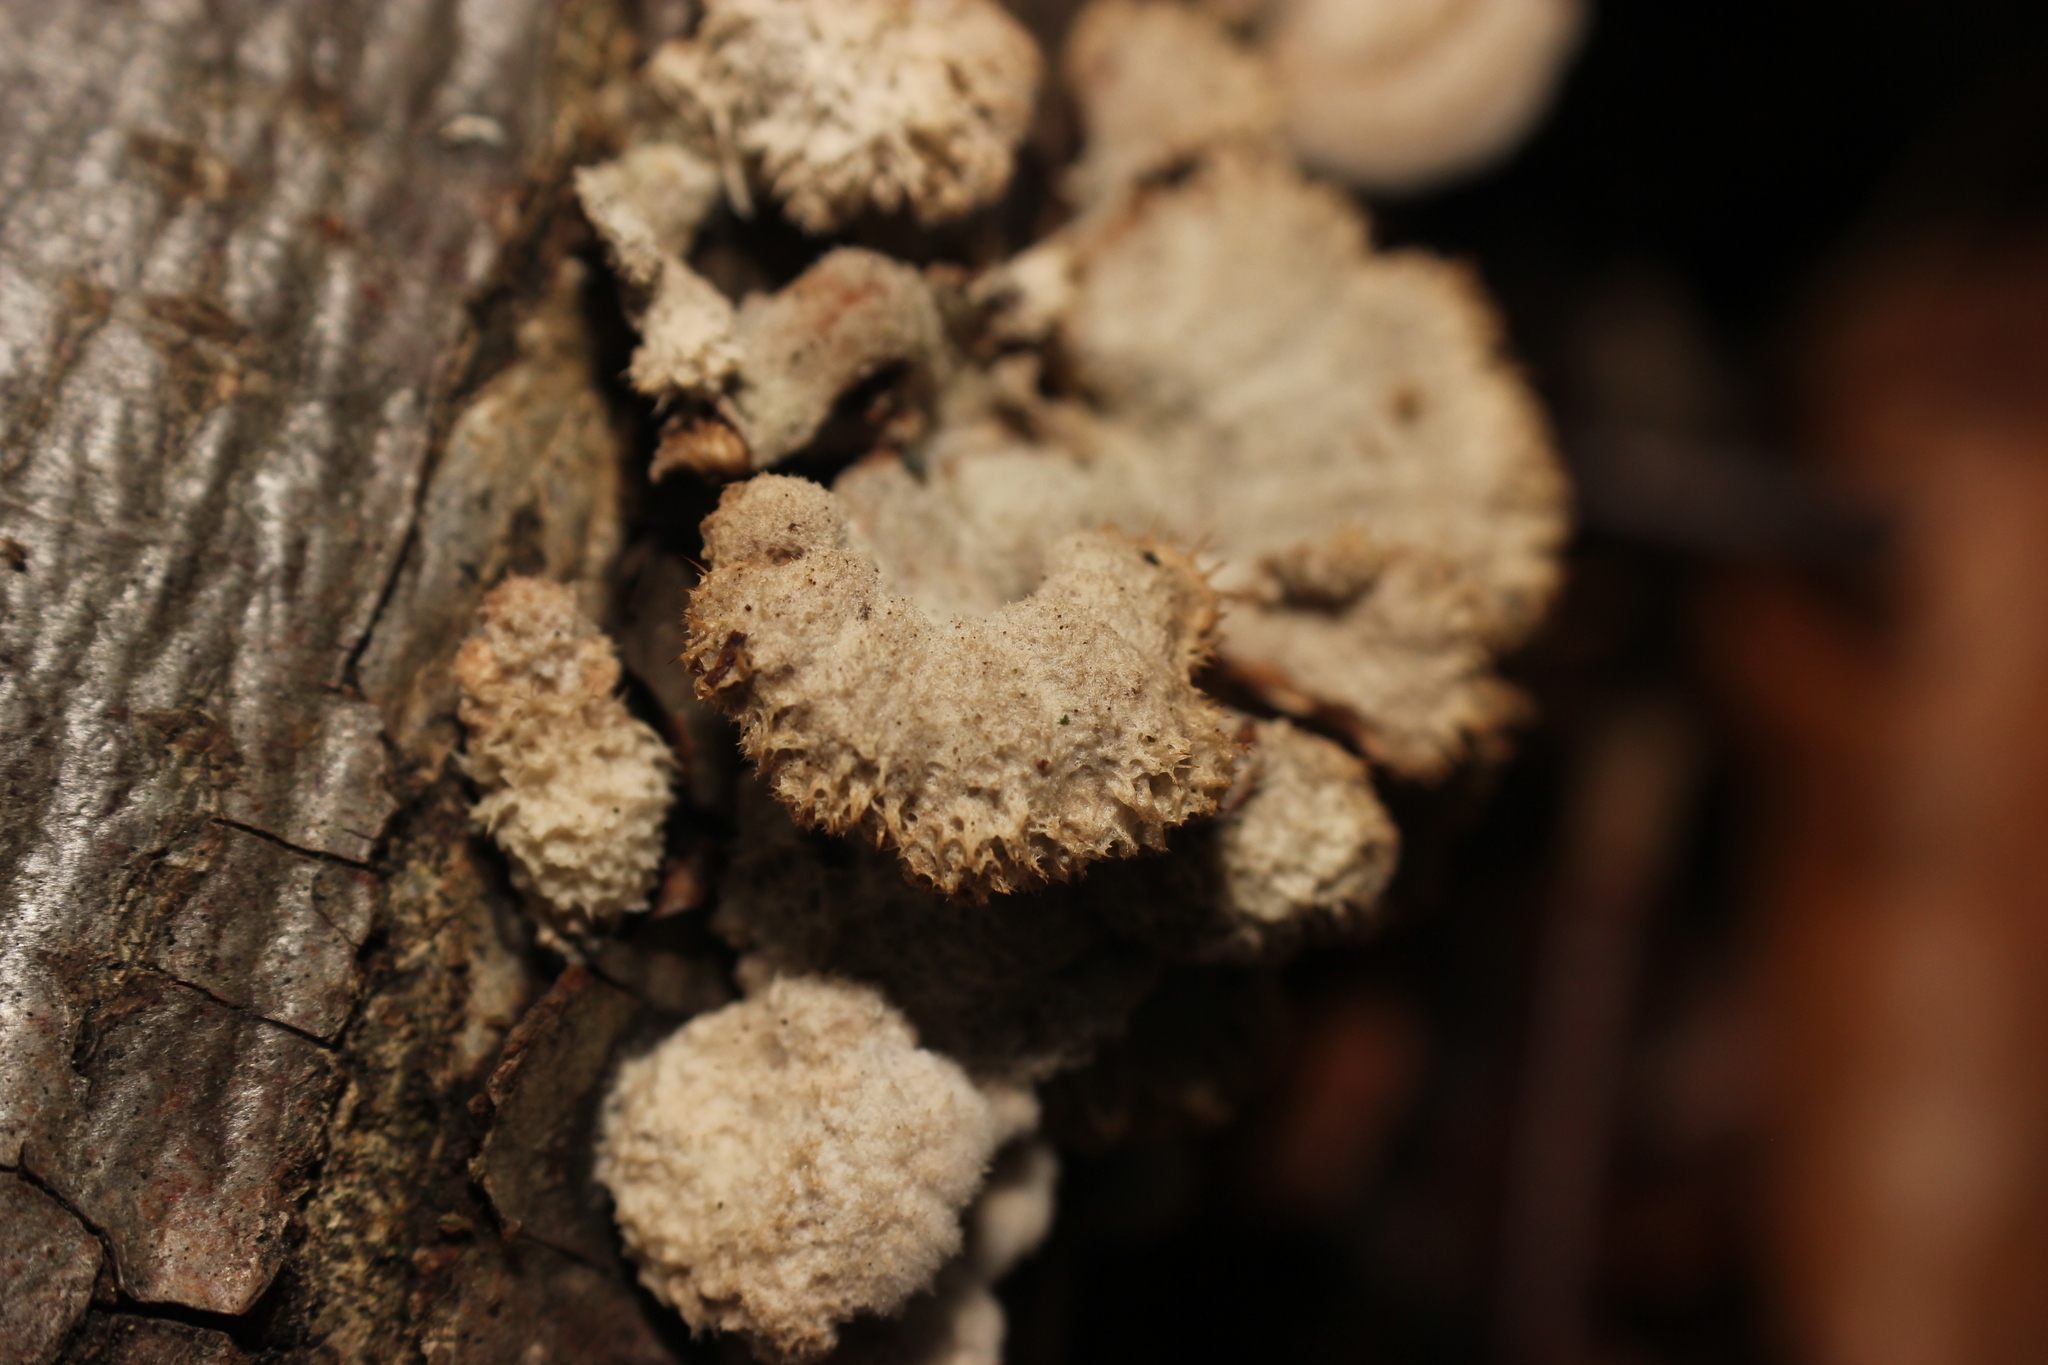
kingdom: Fungi
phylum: Basidiomycota
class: Agaricomycetes
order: Agaricales
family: Schizophyllaceae
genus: Schizophyllum
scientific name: Schizophyllum commune
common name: Common porecrust
